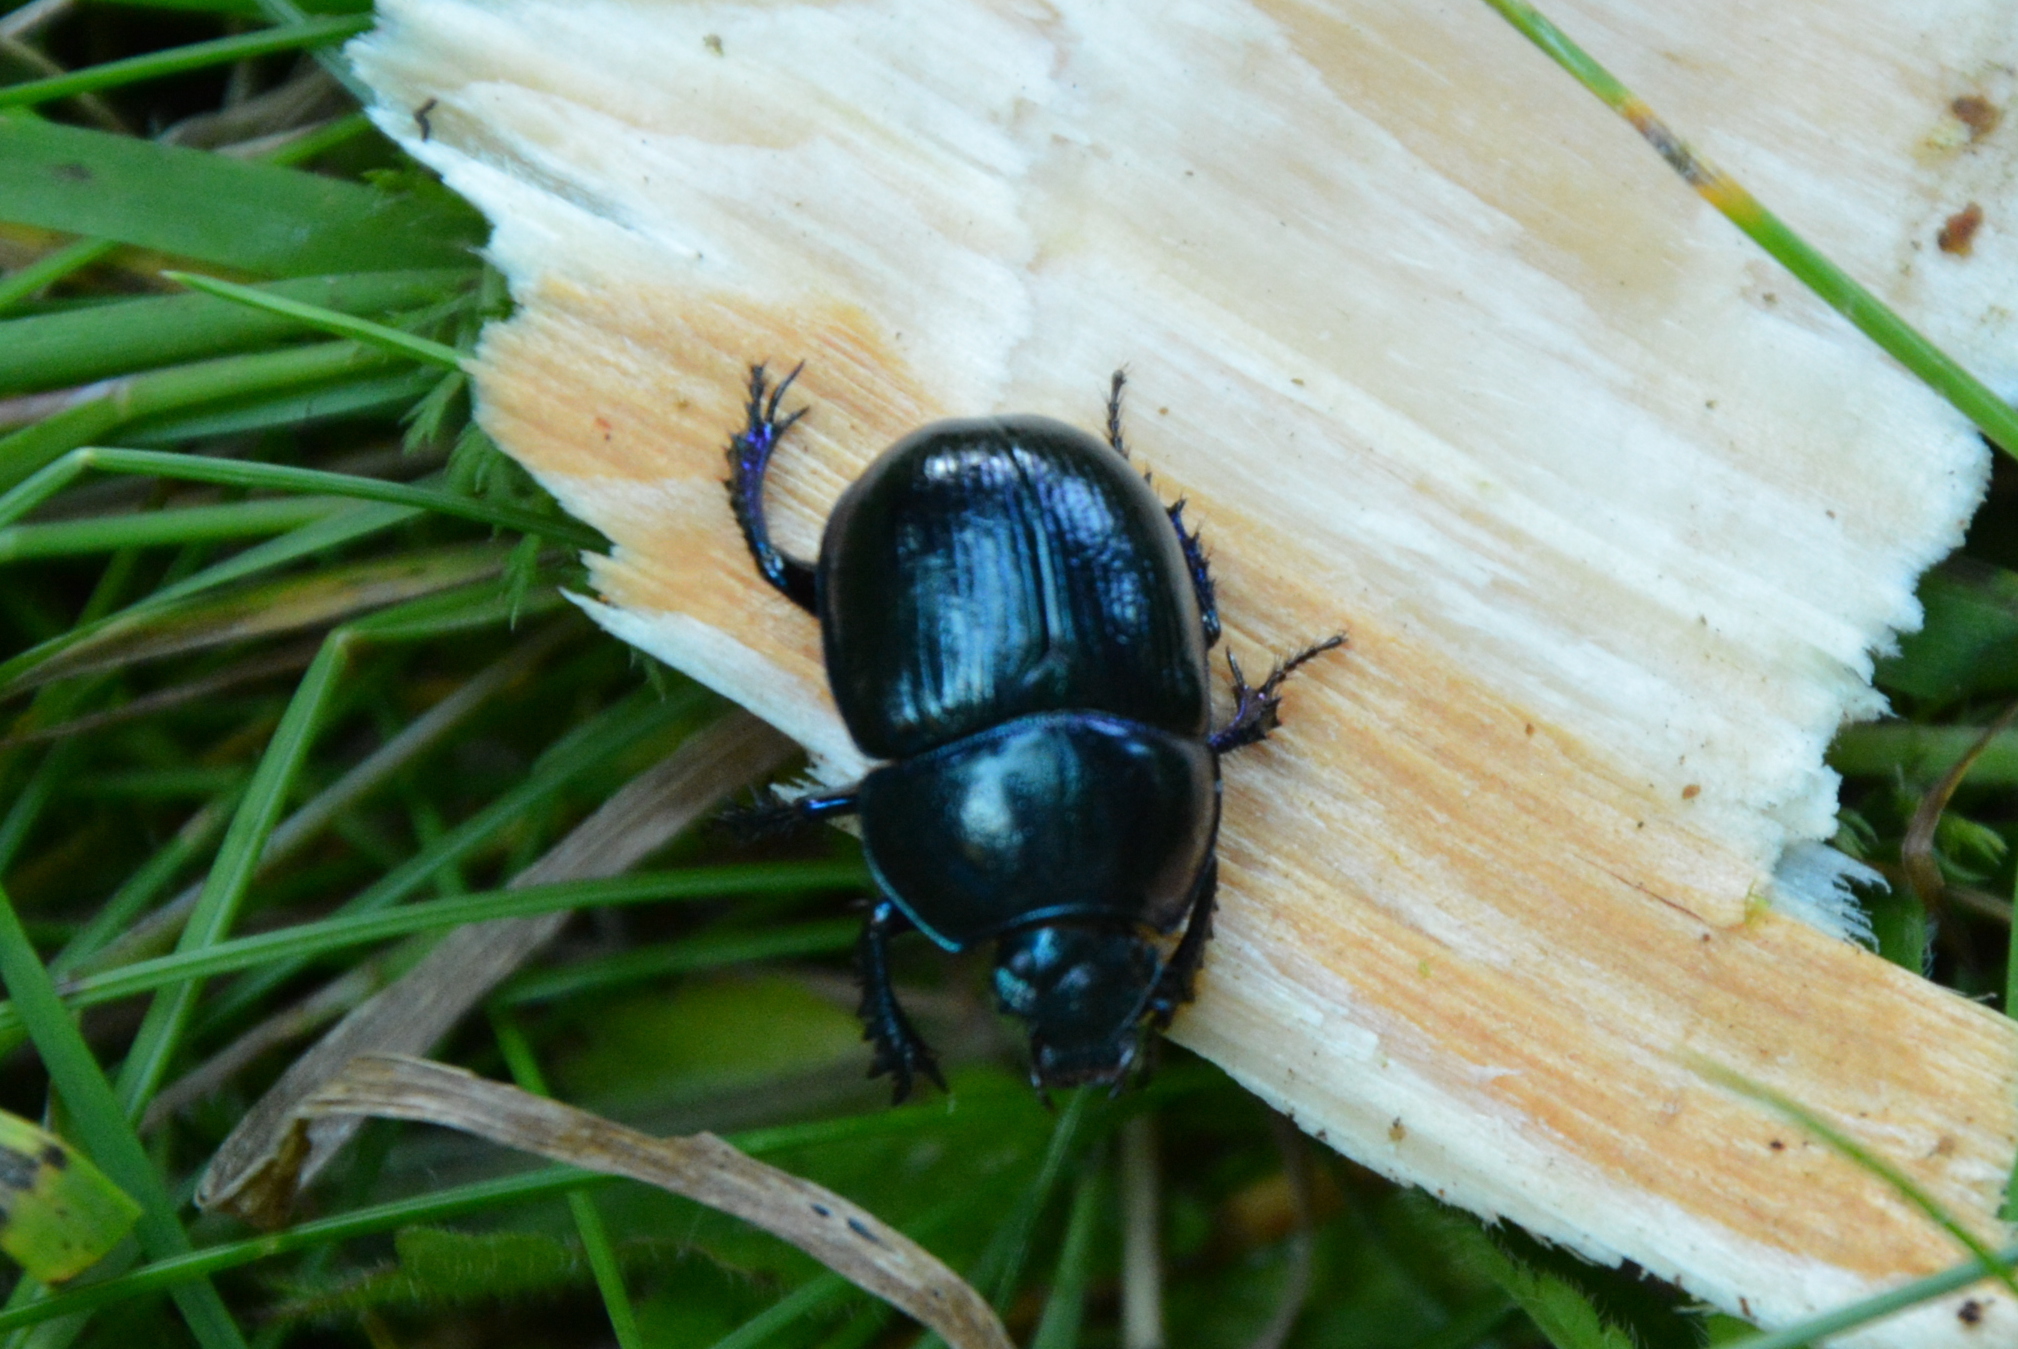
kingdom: Animalia
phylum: Arthropoda
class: Insecta
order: Coleoptera
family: Geotrupidae
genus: Anoplotrupes
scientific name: Anoplotrupes stercorosus
